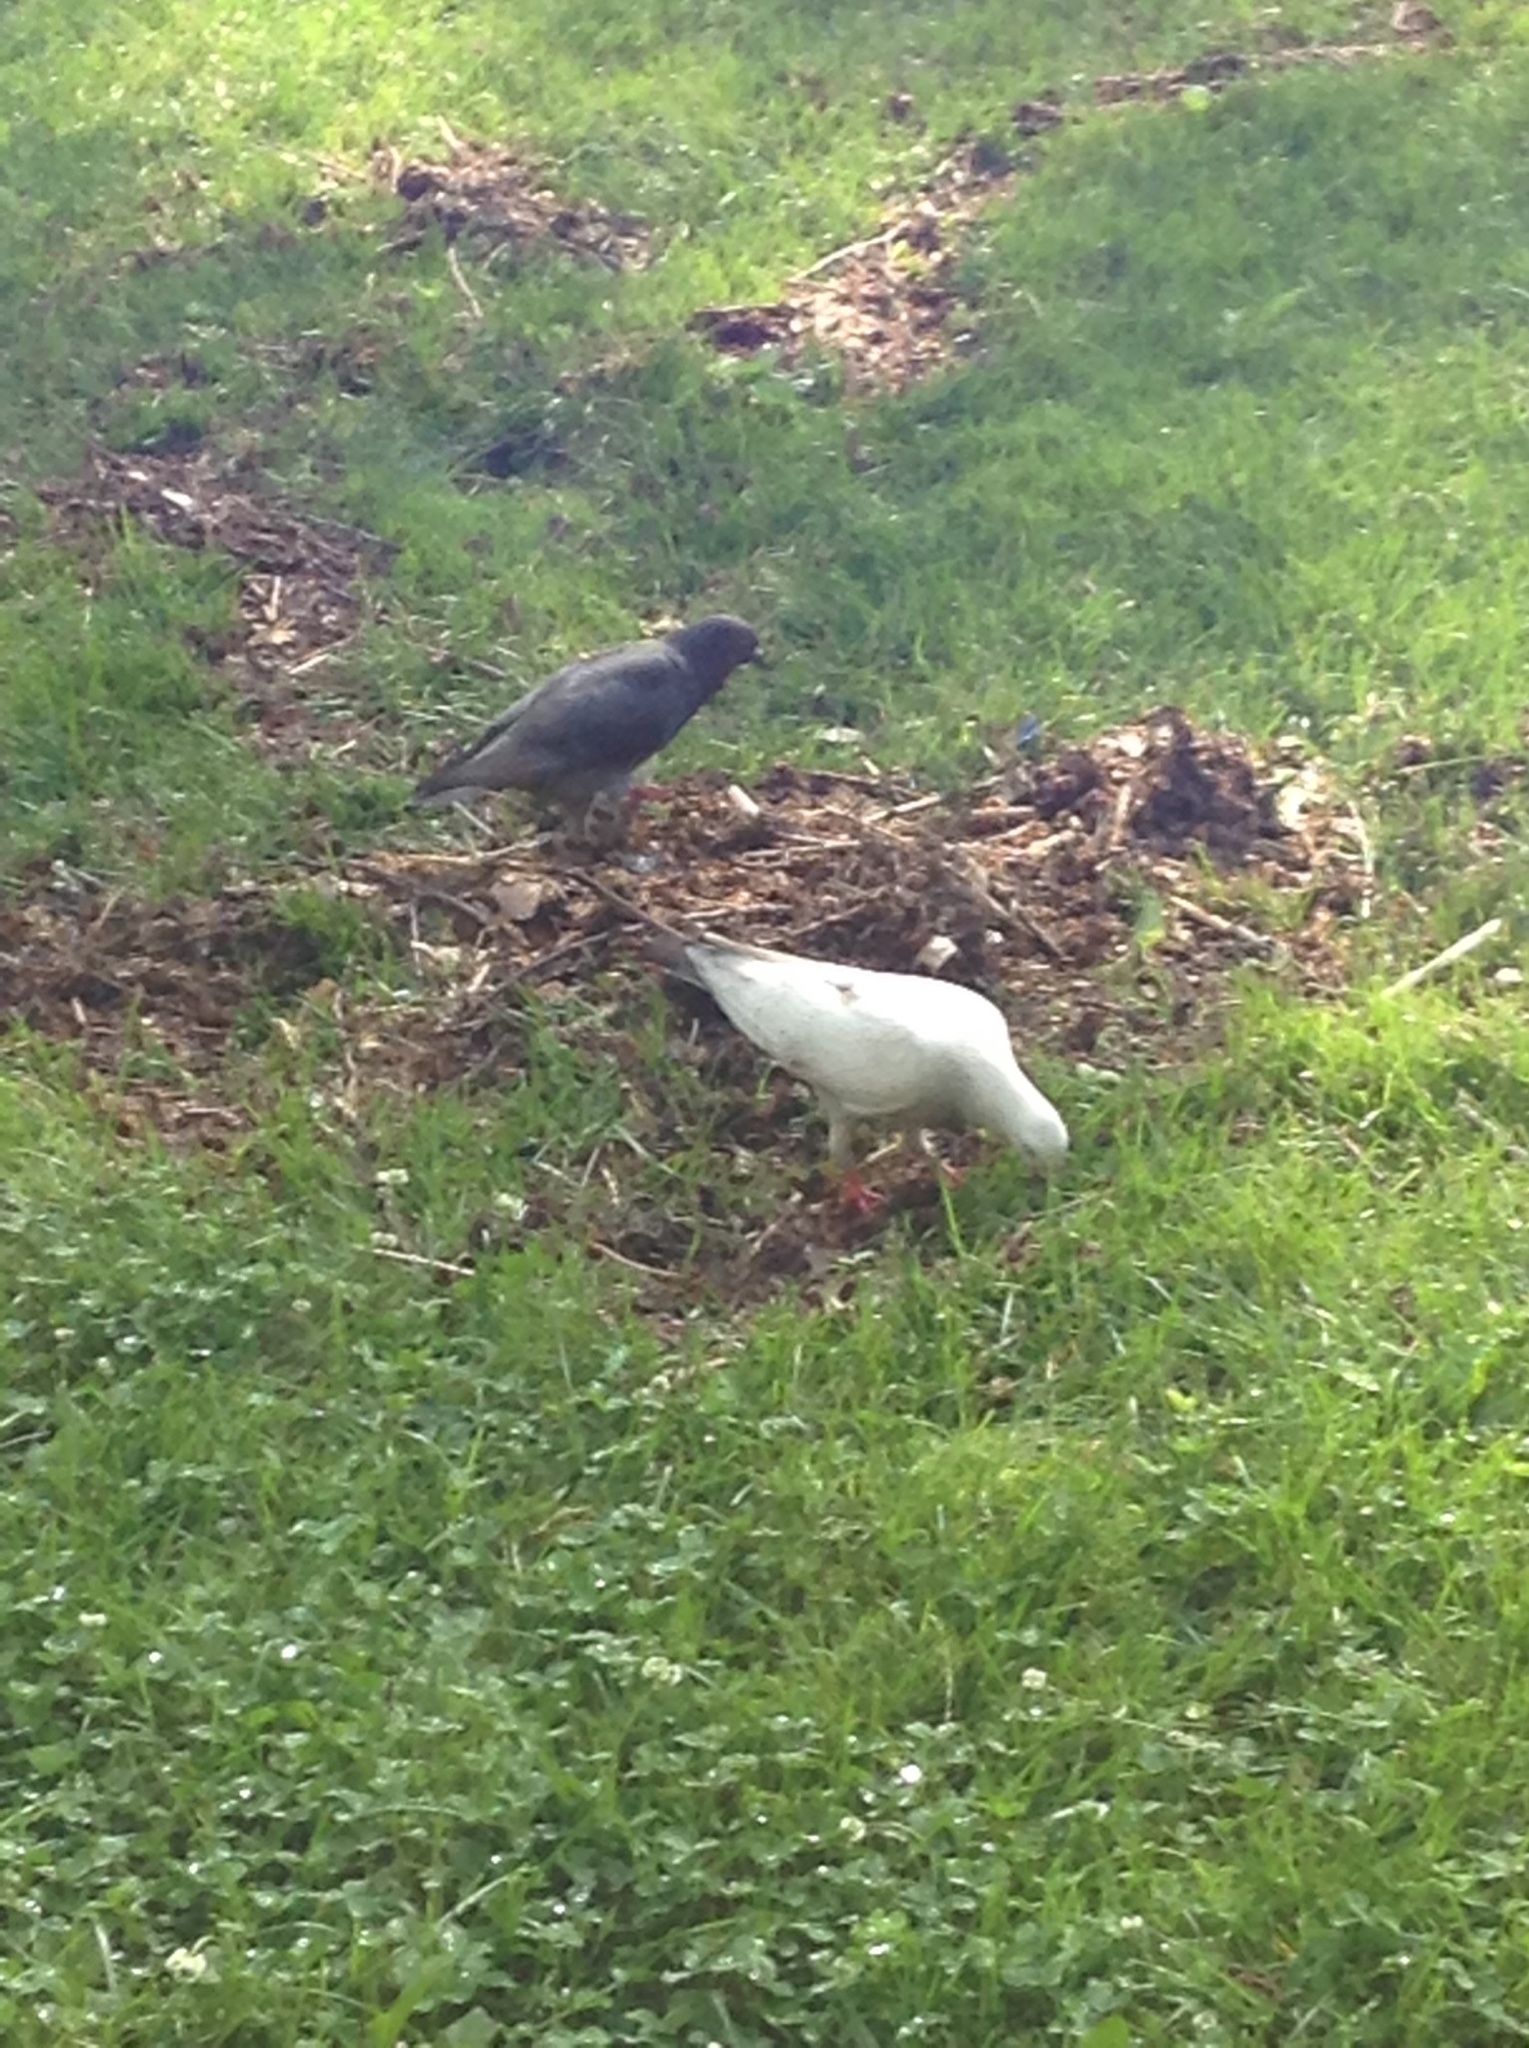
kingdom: Animalia
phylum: Chordata
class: Aves
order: Columbiformes
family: Columbidae
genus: Columba
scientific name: Columba livia
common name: Rock pigeon
